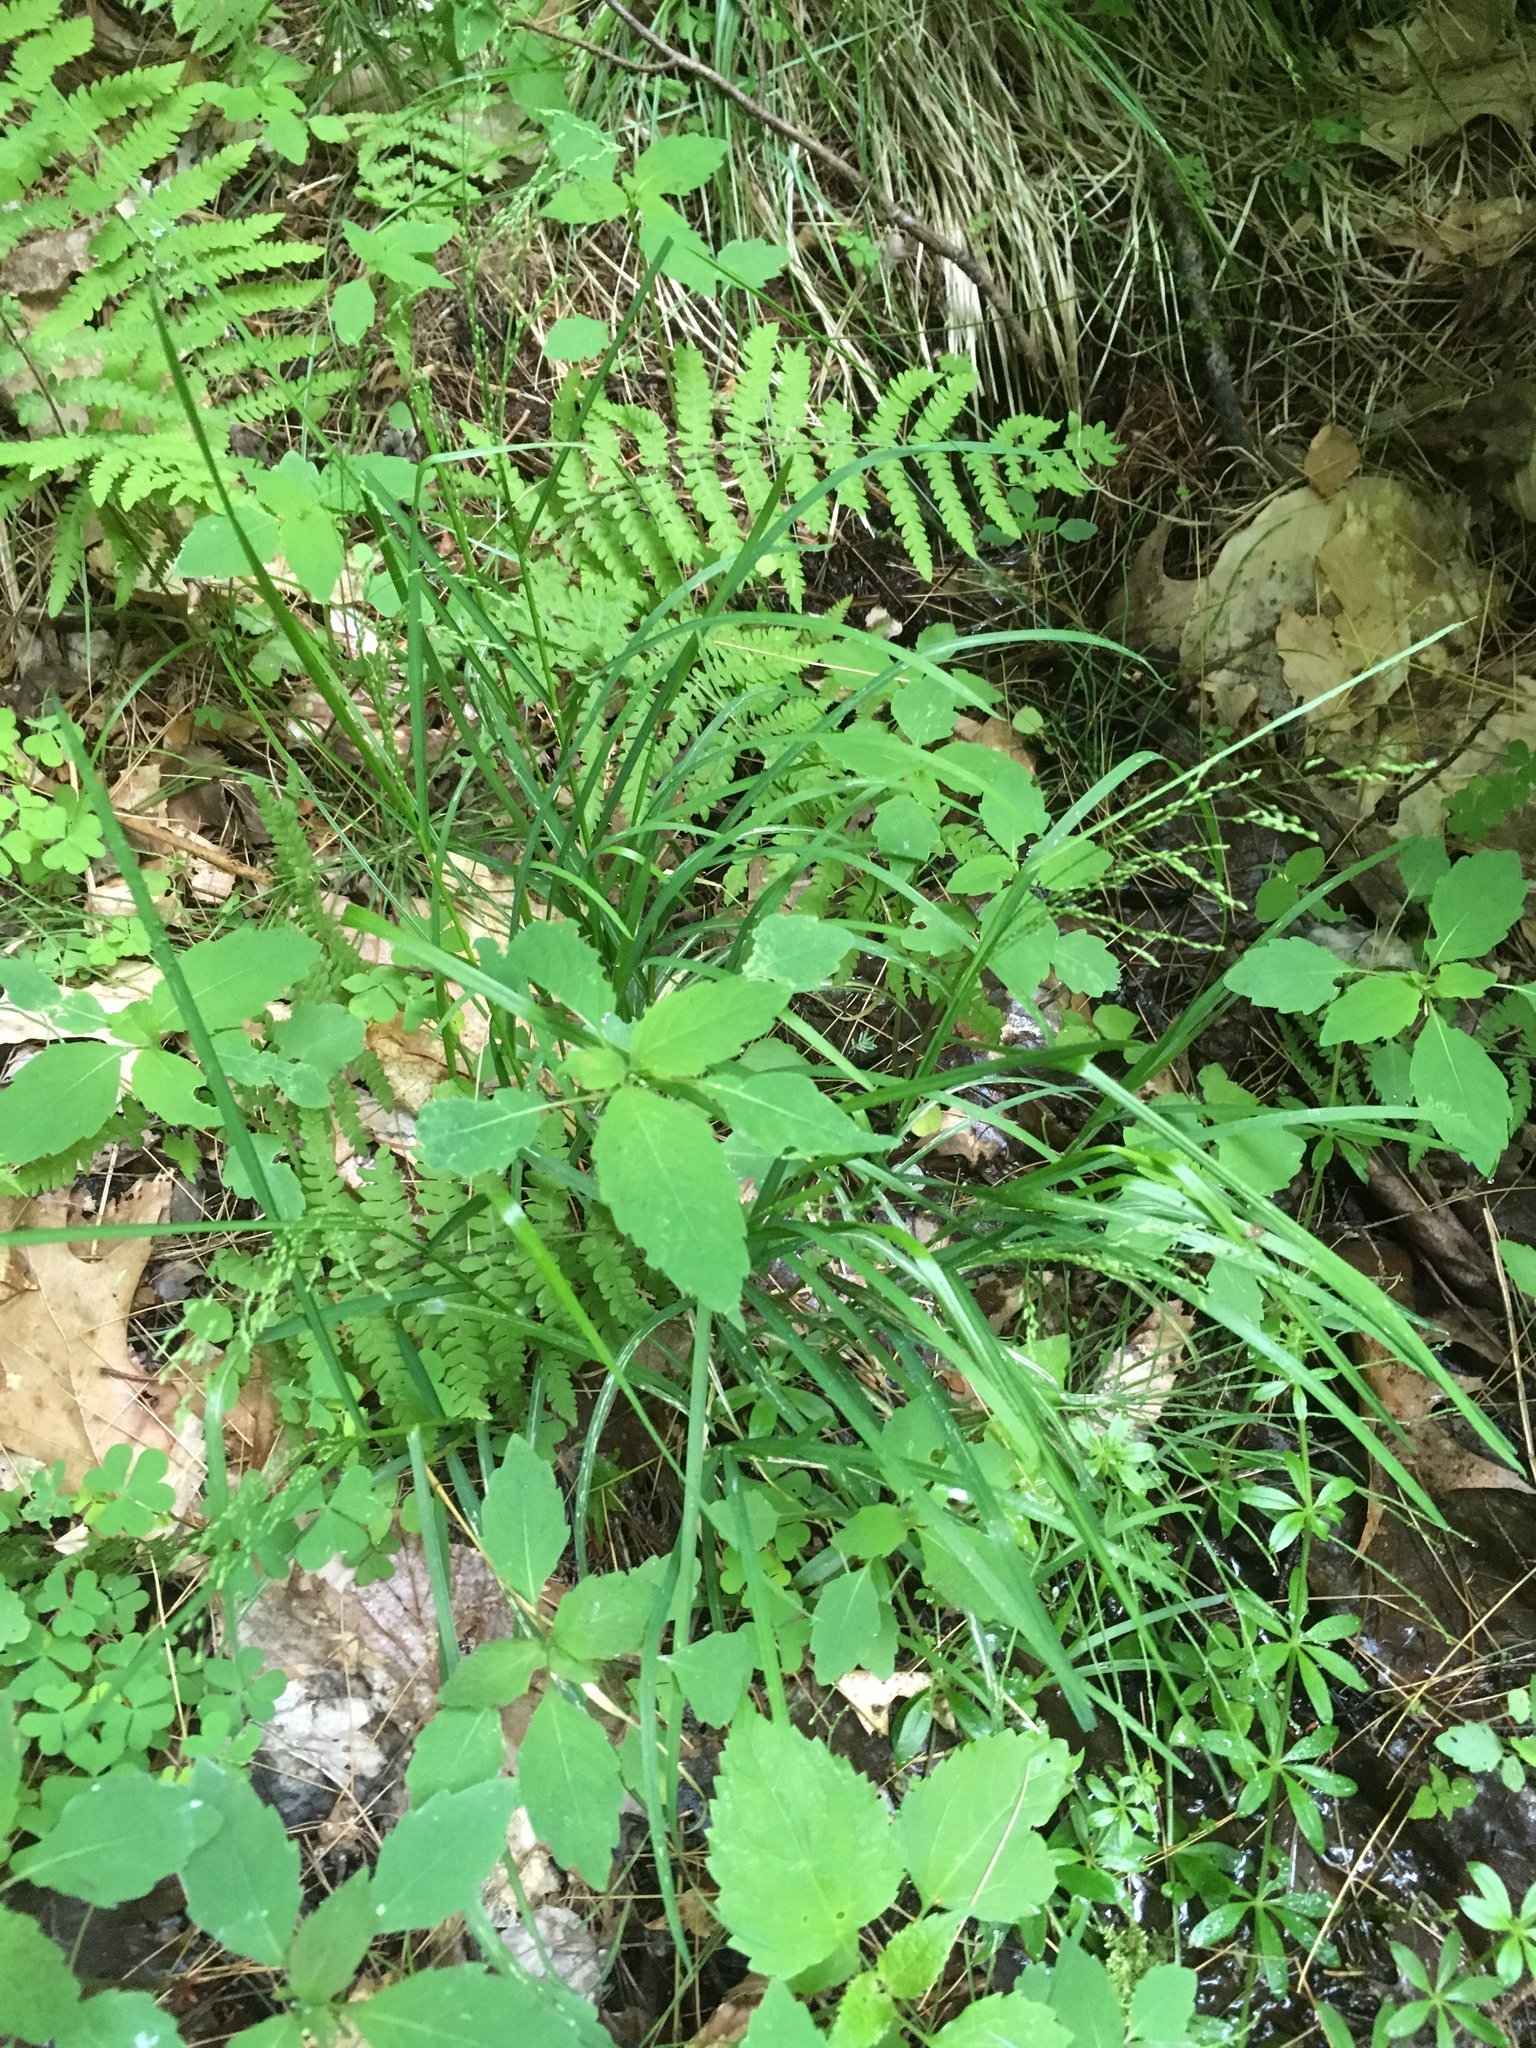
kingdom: Plantae
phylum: Tracheophyta
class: Magnoliopsida
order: Ericales
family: Balsaminaceae
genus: Impatiens
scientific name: Impatiens capensis
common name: Orange balsam
